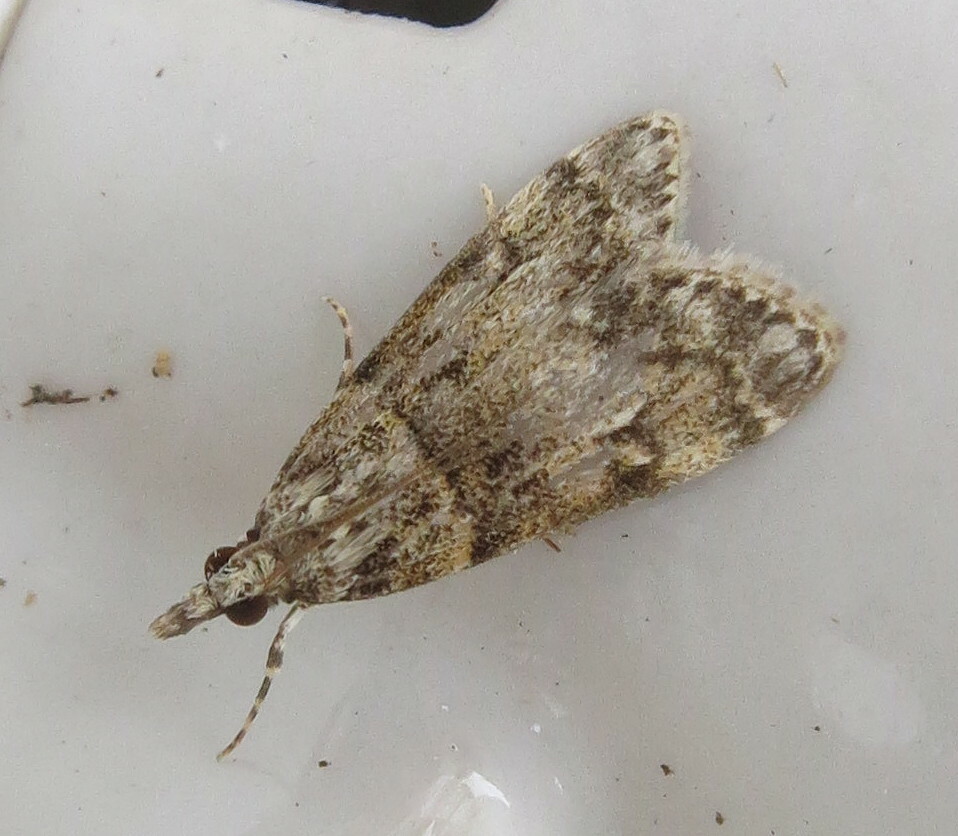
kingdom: Animalia
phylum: Arthropoda
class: Insecta
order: Lepidoptera
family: Crambidae
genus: Eudonia
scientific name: Eudonia lacustrata
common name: Little grey
